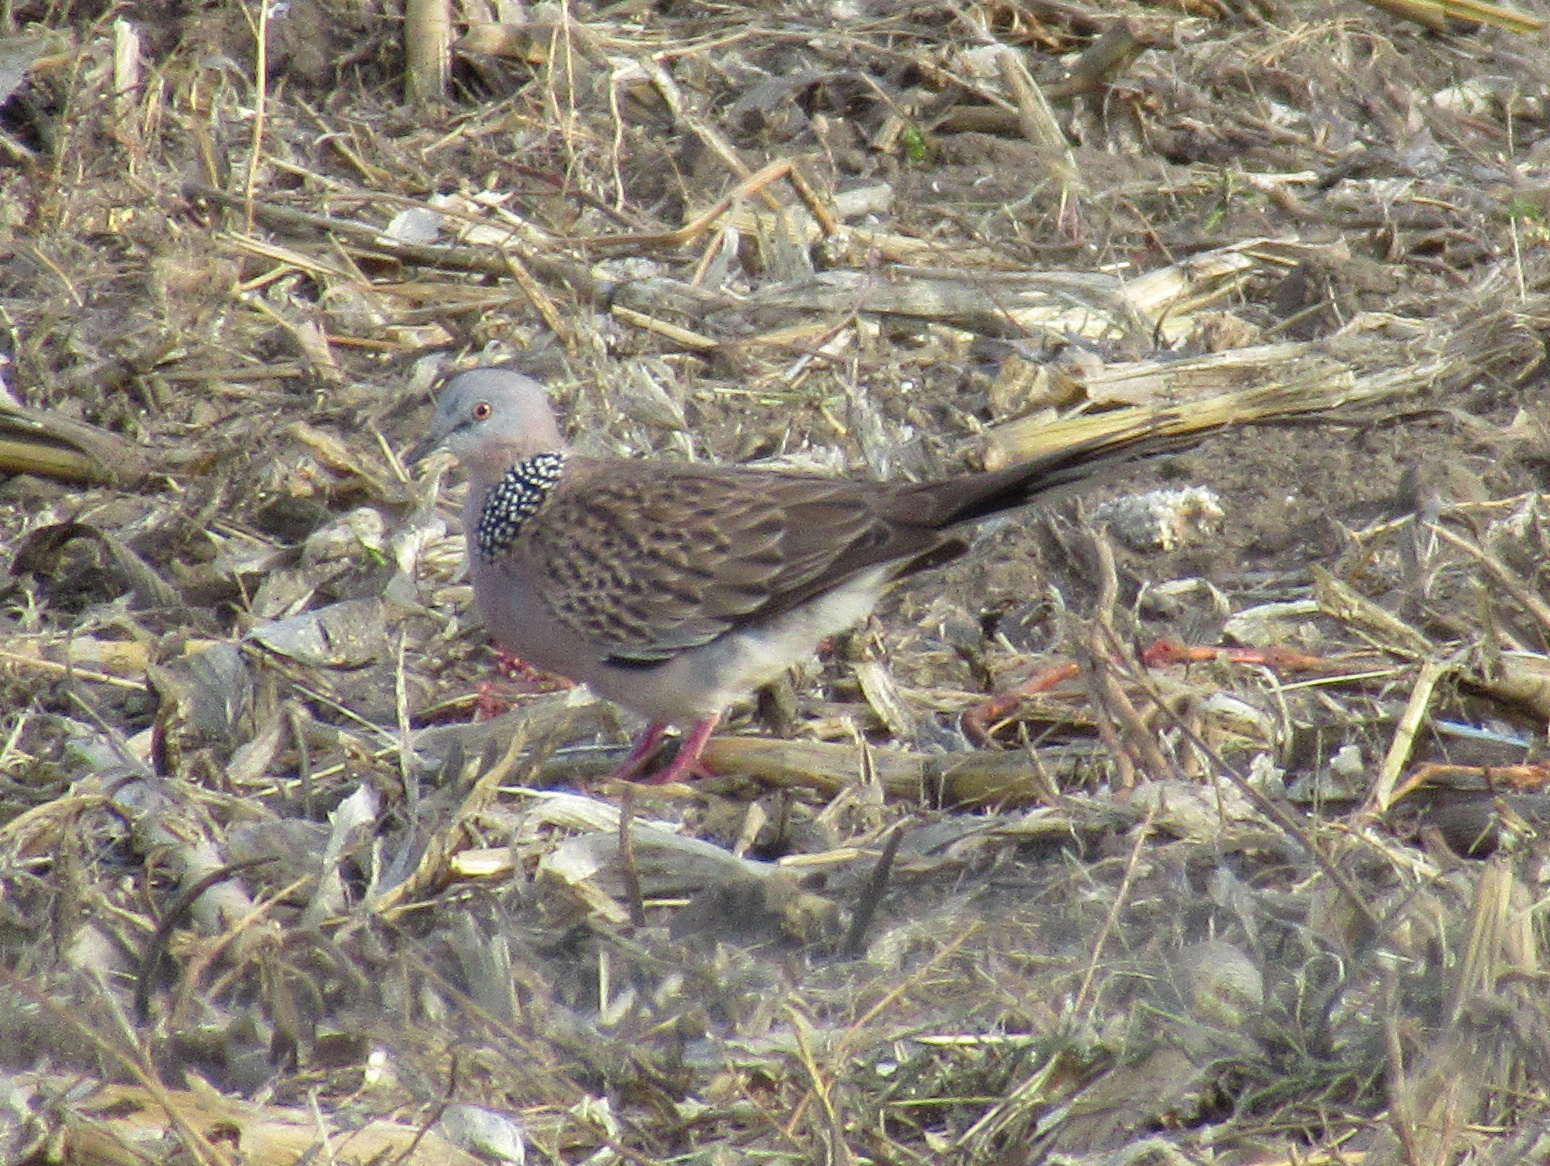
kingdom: Animalia
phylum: Chordata
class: Aves
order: Columbiformes
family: Columbidae
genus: Spilopelia
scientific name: Spilopelia chinensis
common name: Spotted dove
